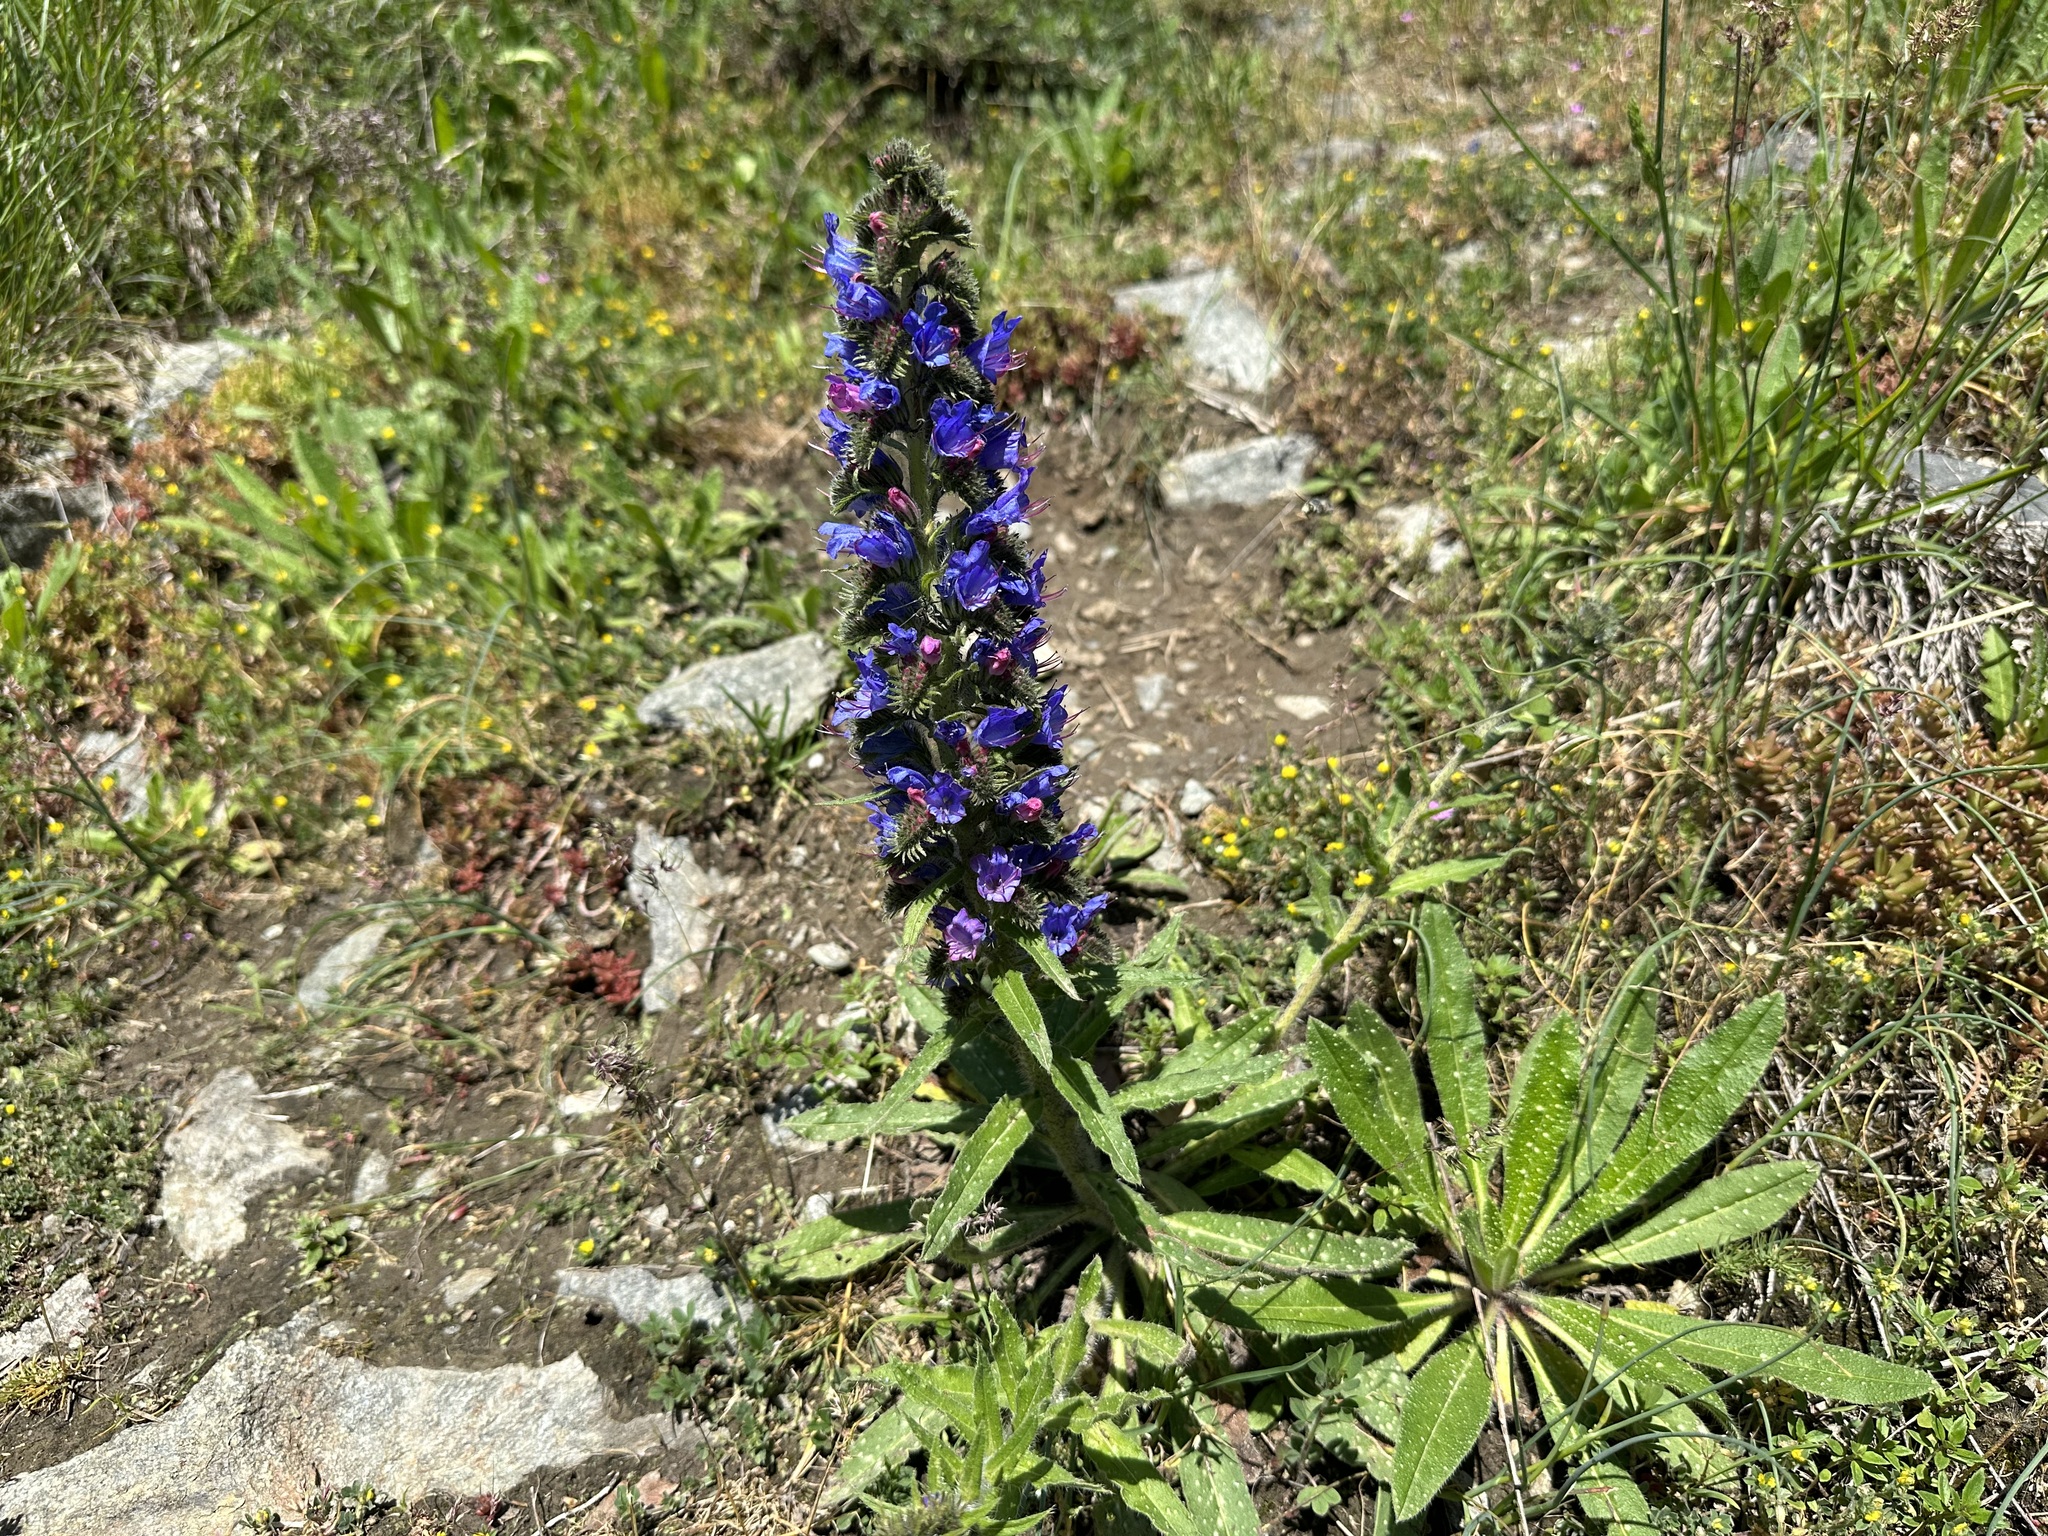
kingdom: Plantae
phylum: Tracheophyta
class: Magnoliopsida
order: Boraginales
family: Boraginaceae
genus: Echium
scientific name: Echium vulgare
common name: Common viper's bugloss
